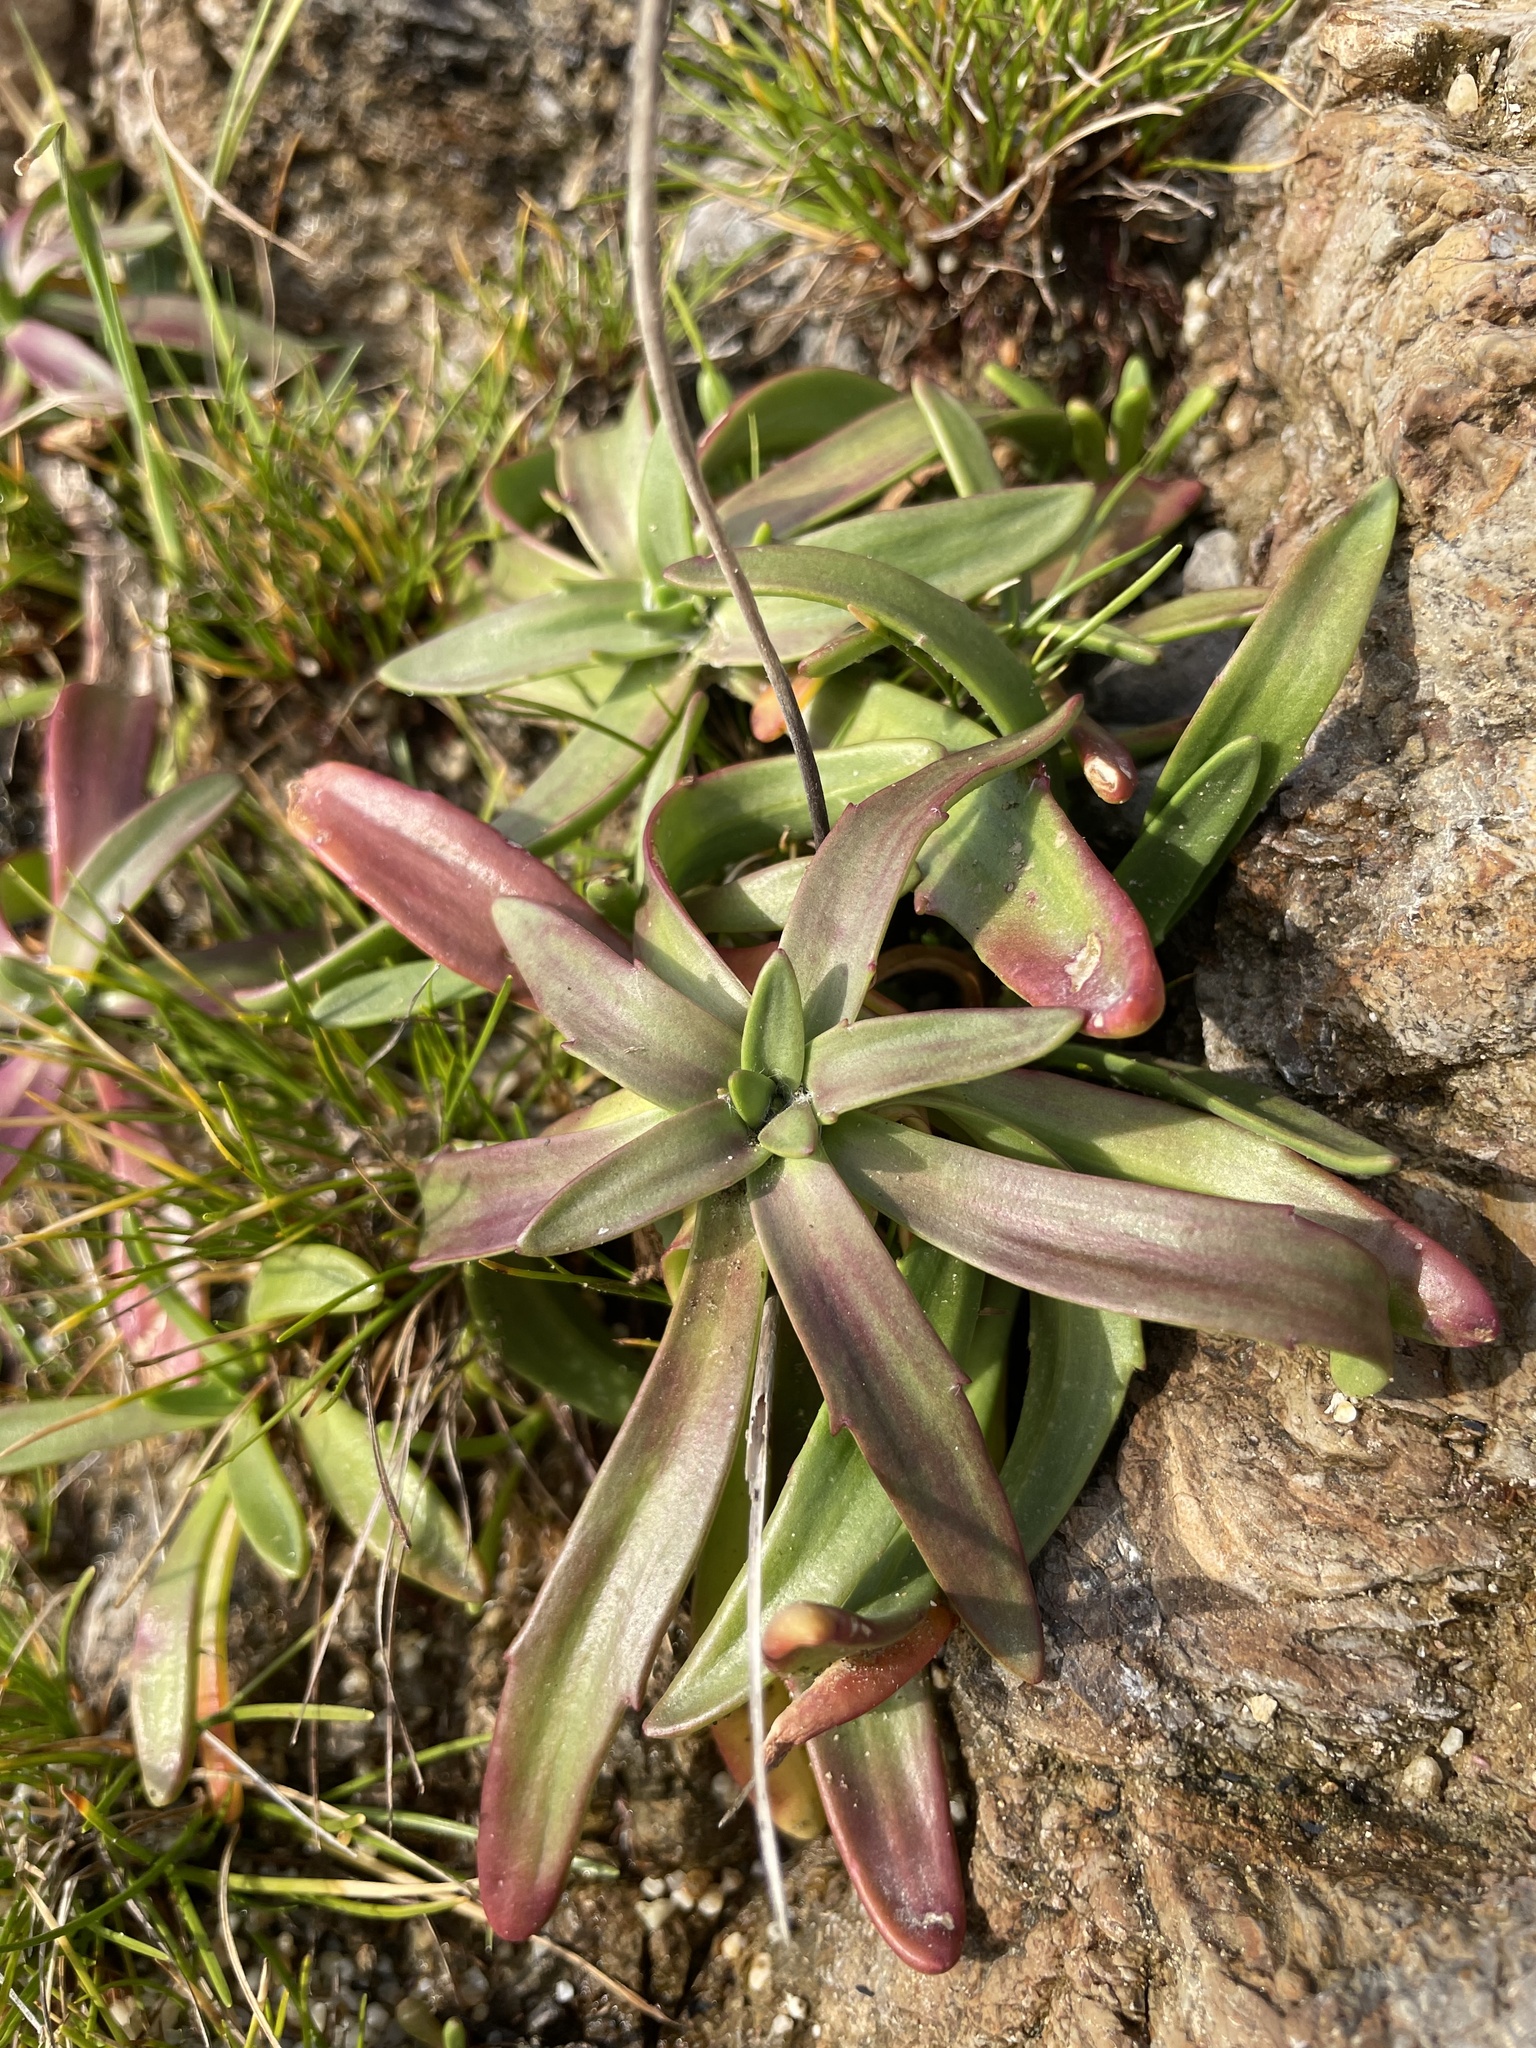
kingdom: Plantae
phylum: Tracheophyta
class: Magnoliopsida
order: Lamiales
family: Plantaginaceae
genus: Plantago
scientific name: Plantago maritima
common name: Sea plantain
